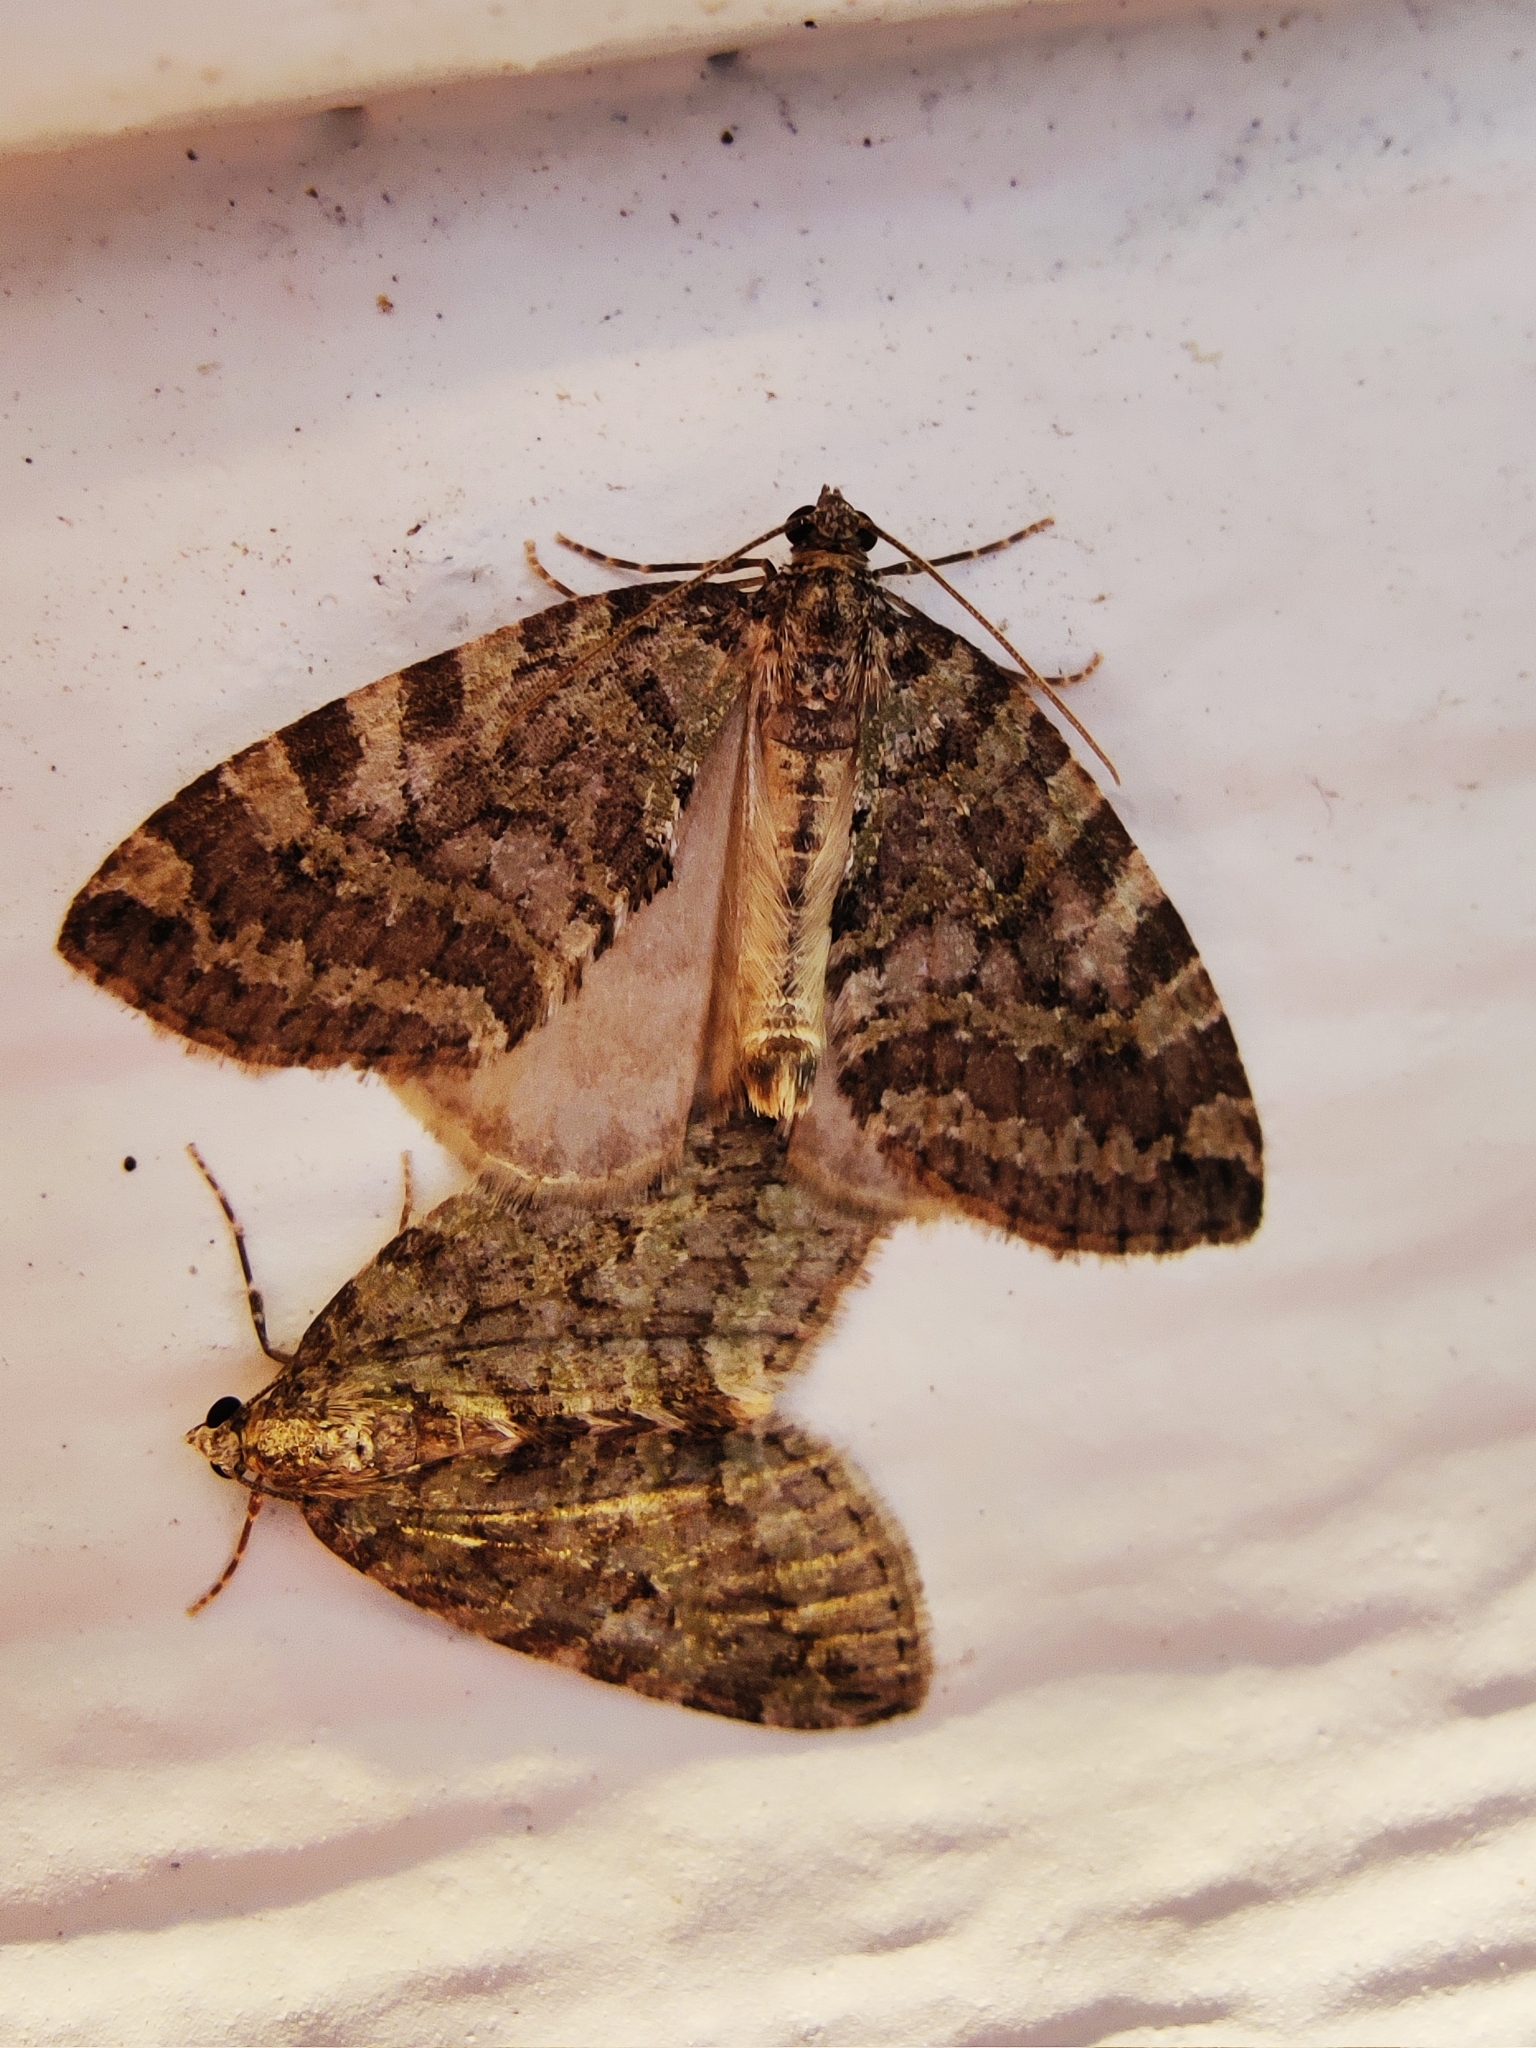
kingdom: Animalia
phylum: Arthropoda
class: Insecta
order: Lepidoptera
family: Geometridae
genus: Hydriomena
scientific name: Hydriomena nubilofasciata
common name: Oak winter highflier moth
